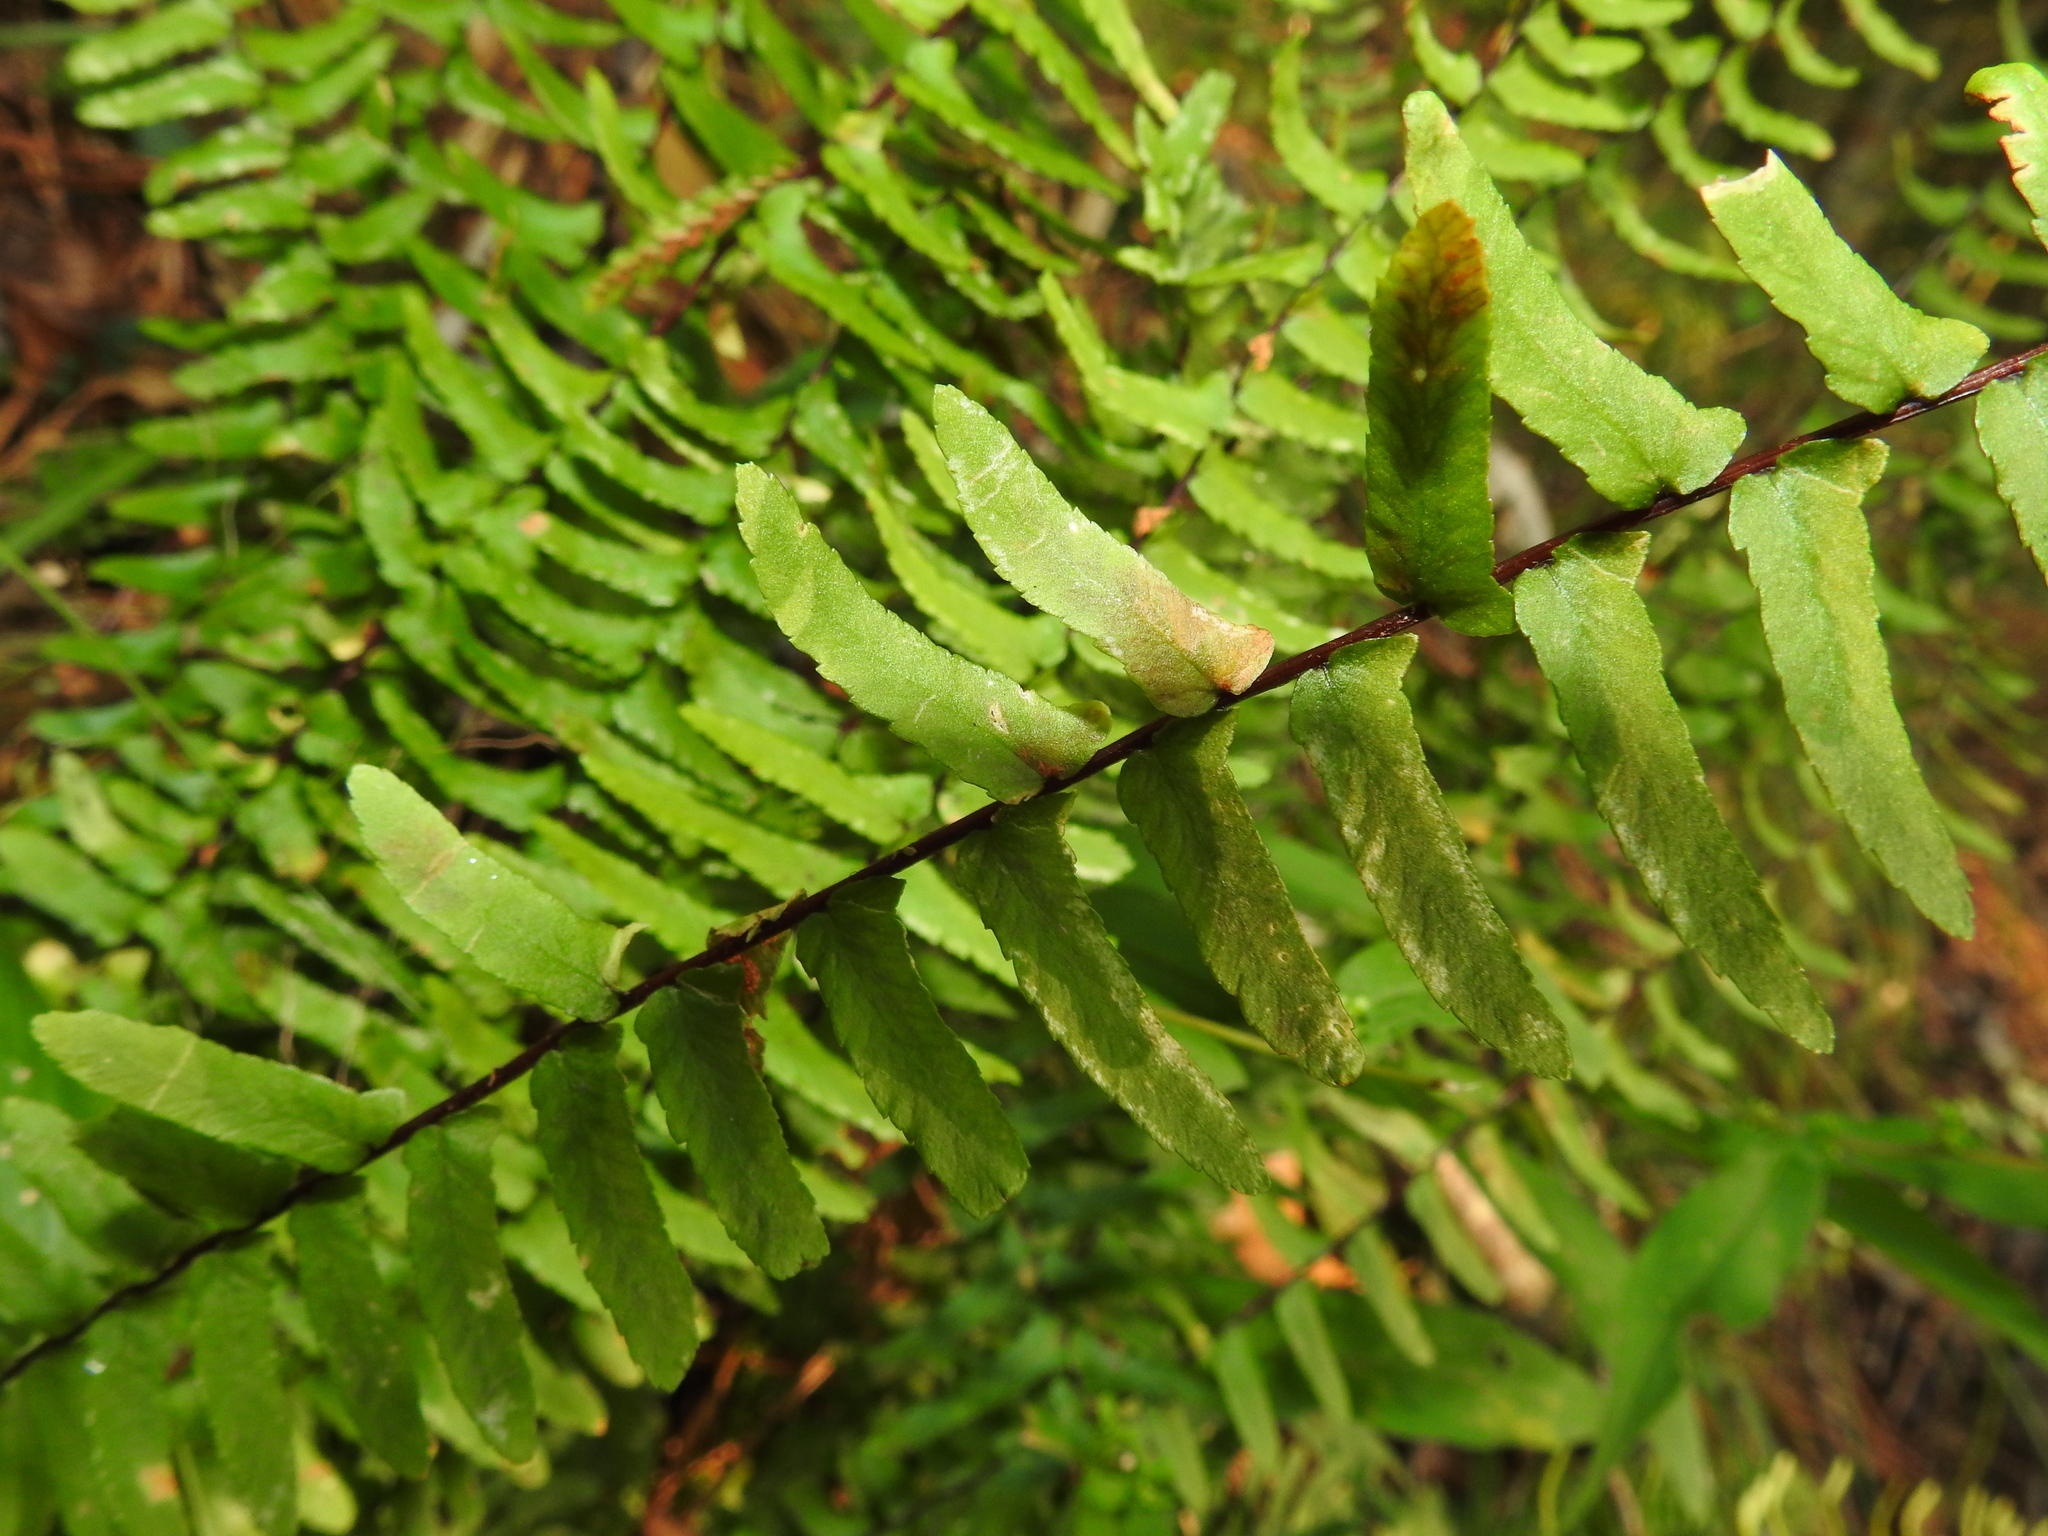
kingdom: Plantae
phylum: Tracheophyta
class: Polypodiopsida
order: Polypodiales
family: Aspleniaceae
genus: Asplenium
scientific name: Asplenium platyneuron
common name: Ebony spleenwort
